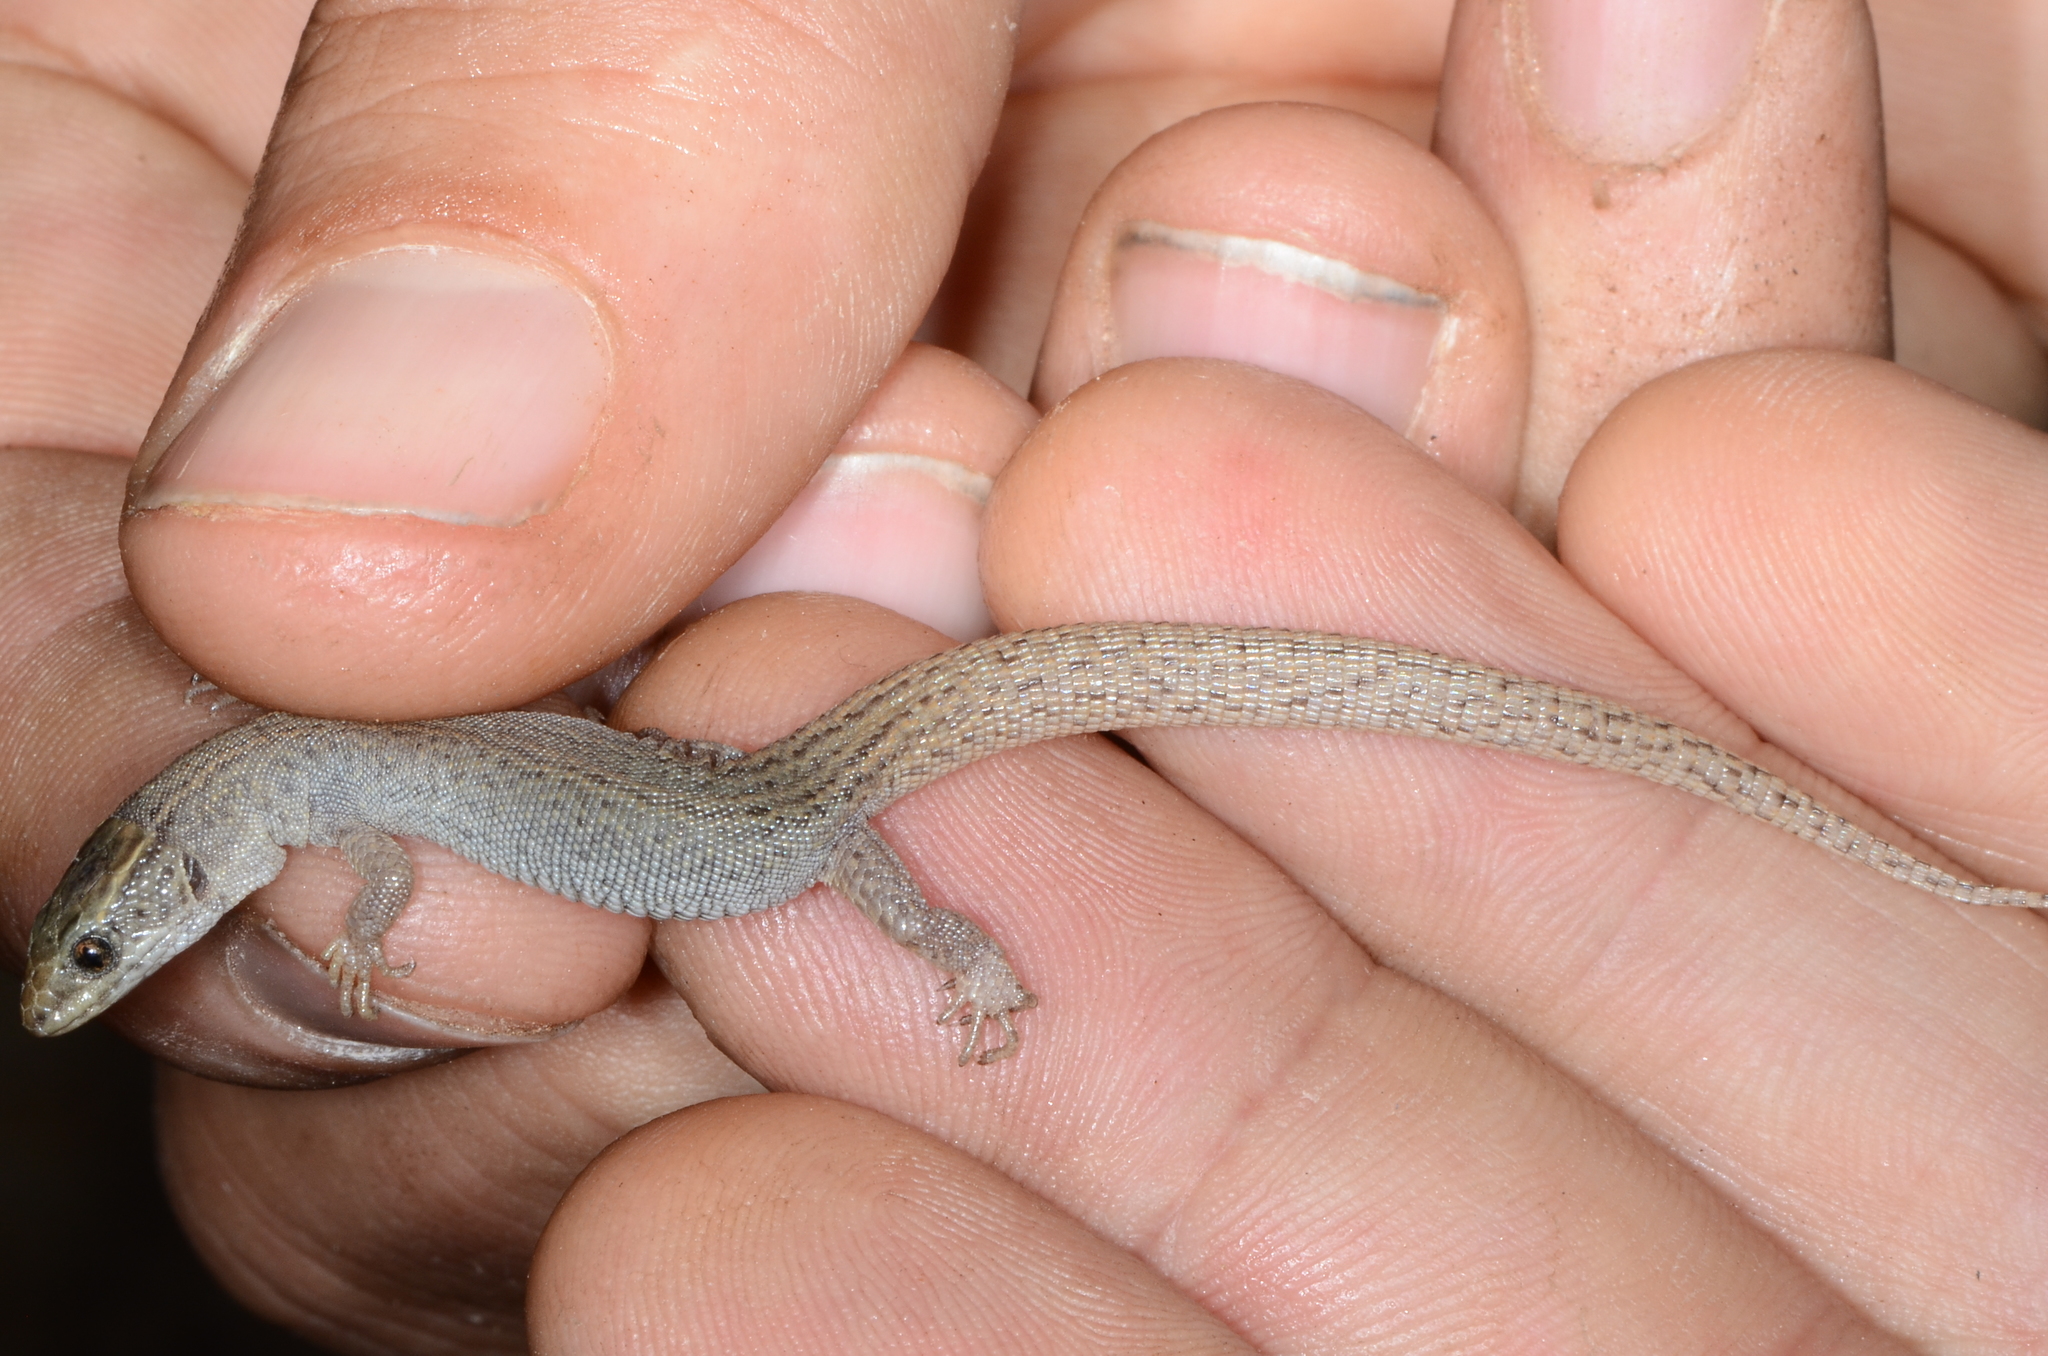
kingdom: Animalia
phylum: Chordata
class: Squamata
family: Xantusiidae
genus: Xantusia
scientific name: Xantusia vigilis
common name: Desert night lizard
